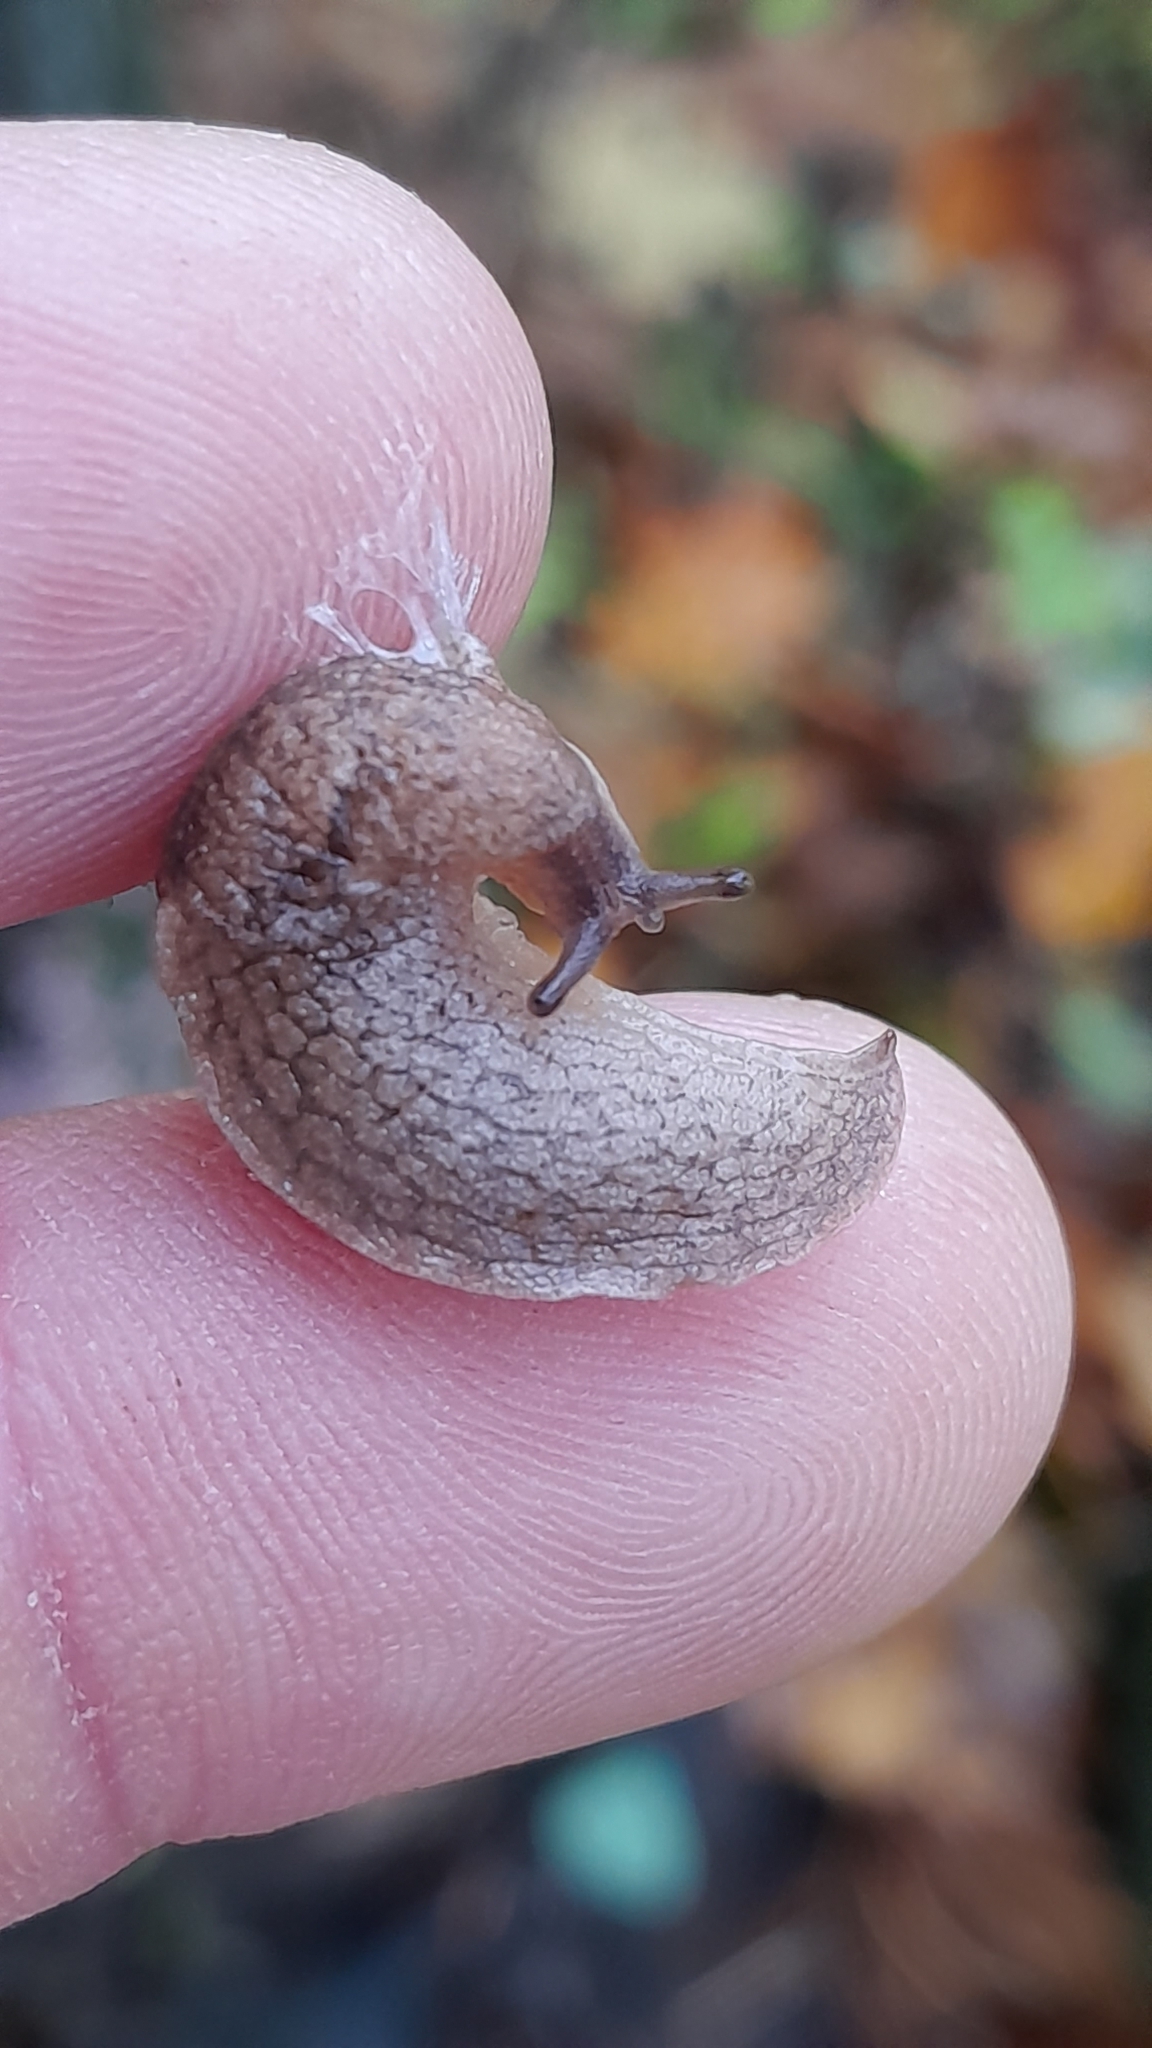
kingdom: Animalia
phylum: Mollusca
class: Gastropoda
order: Stylommatophora
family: Milacidae
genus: Tandonia
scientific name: Tandonia kusceri
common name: Keeled slug
